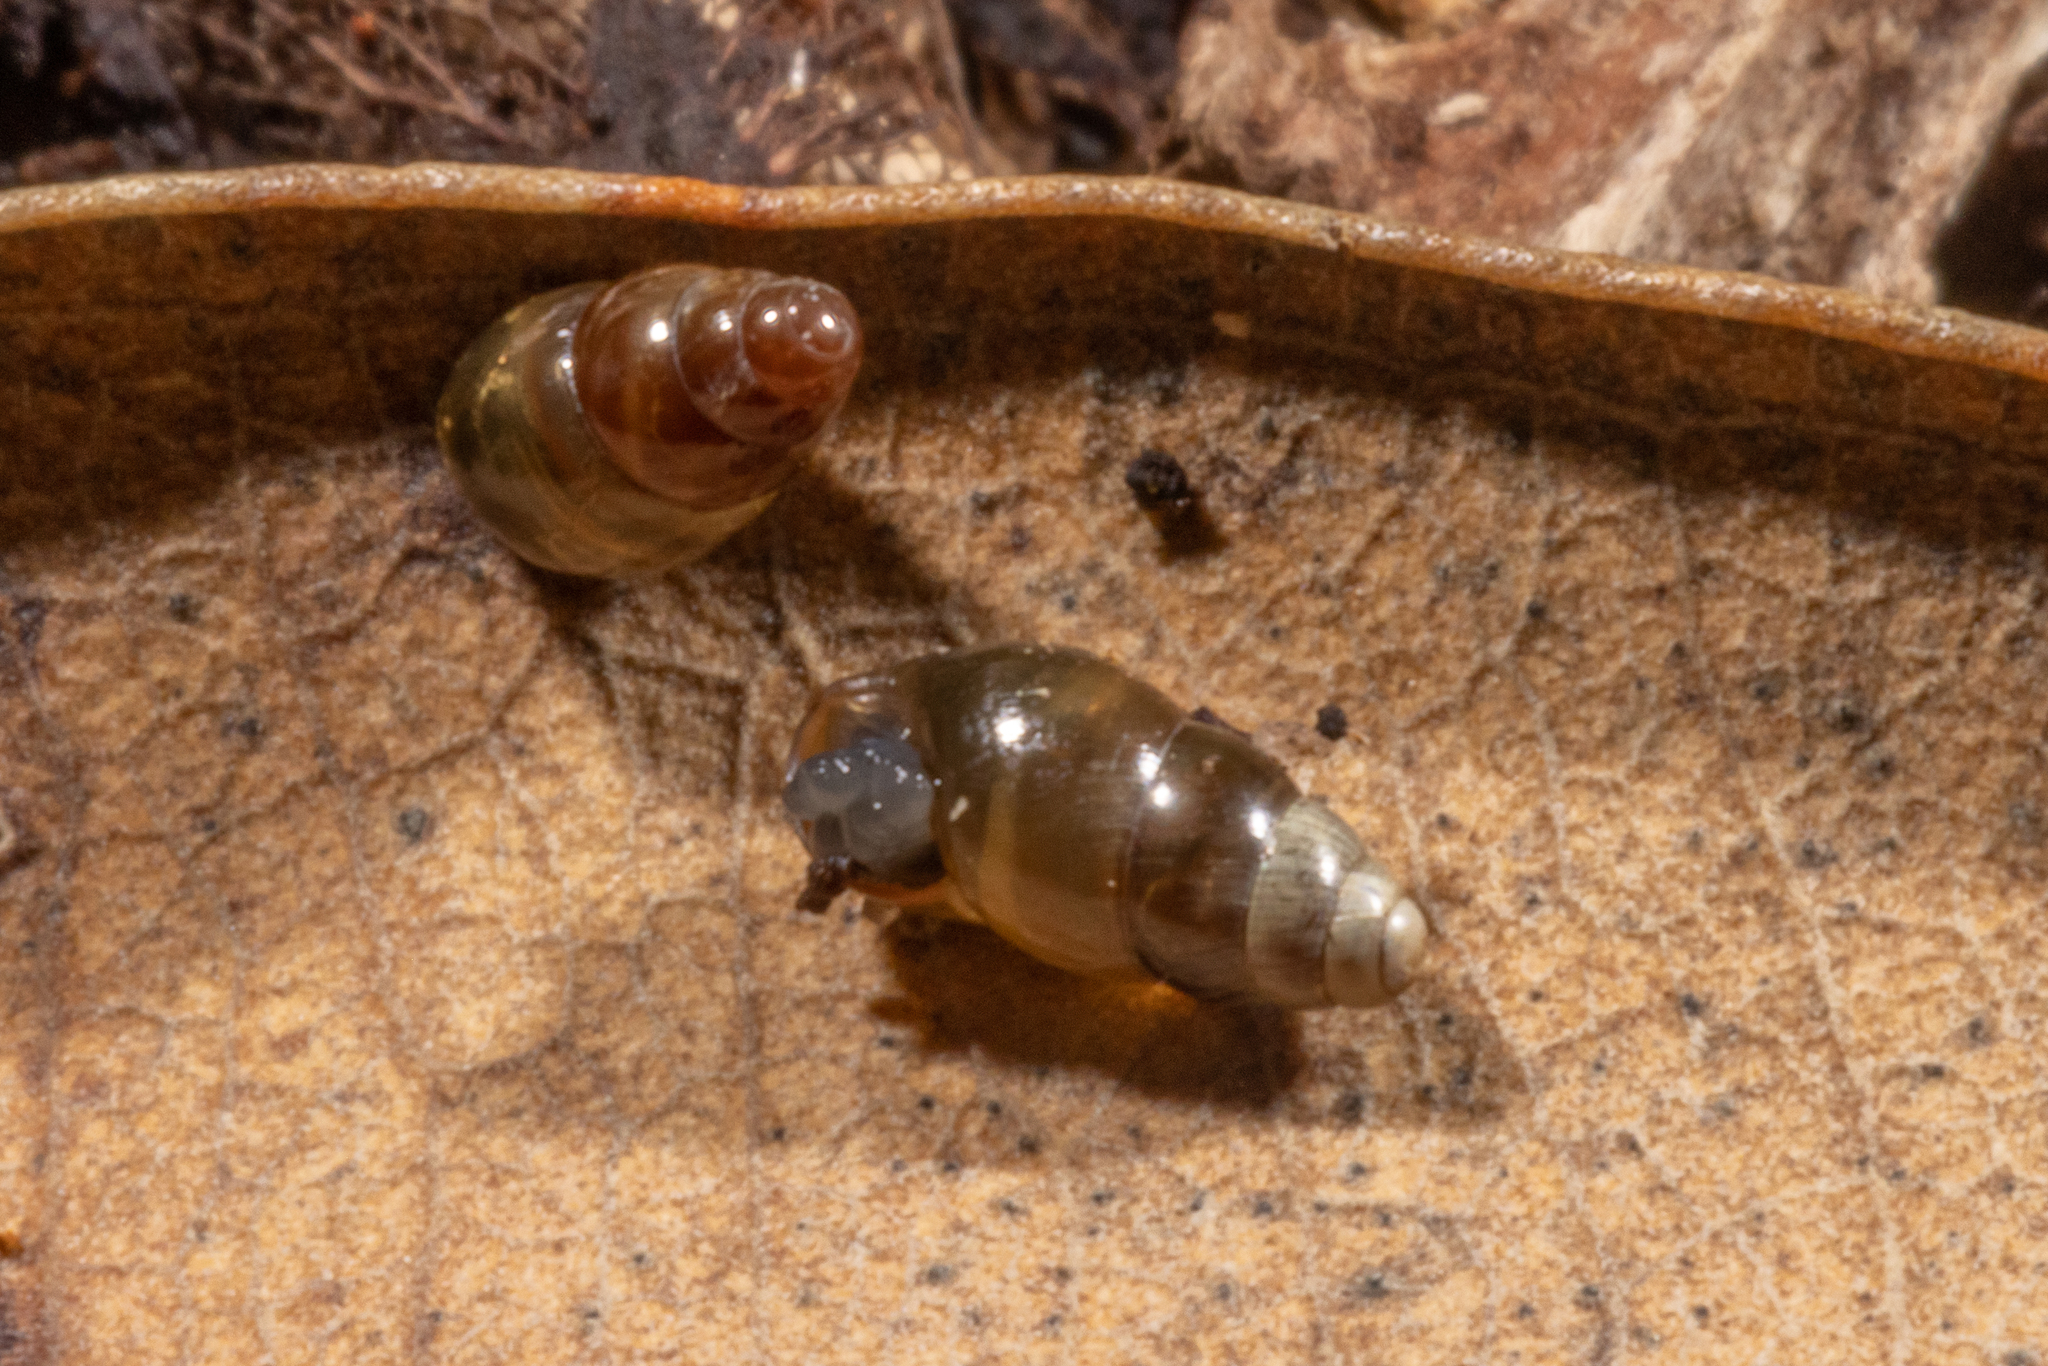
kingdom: Animalia
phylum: Mollusca
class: Gastropoda
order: Stylommatophora
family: Cochlicopidae
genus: Cochlicopa
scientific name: Cochlicopa lubrica
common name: Glossy pillar snail
